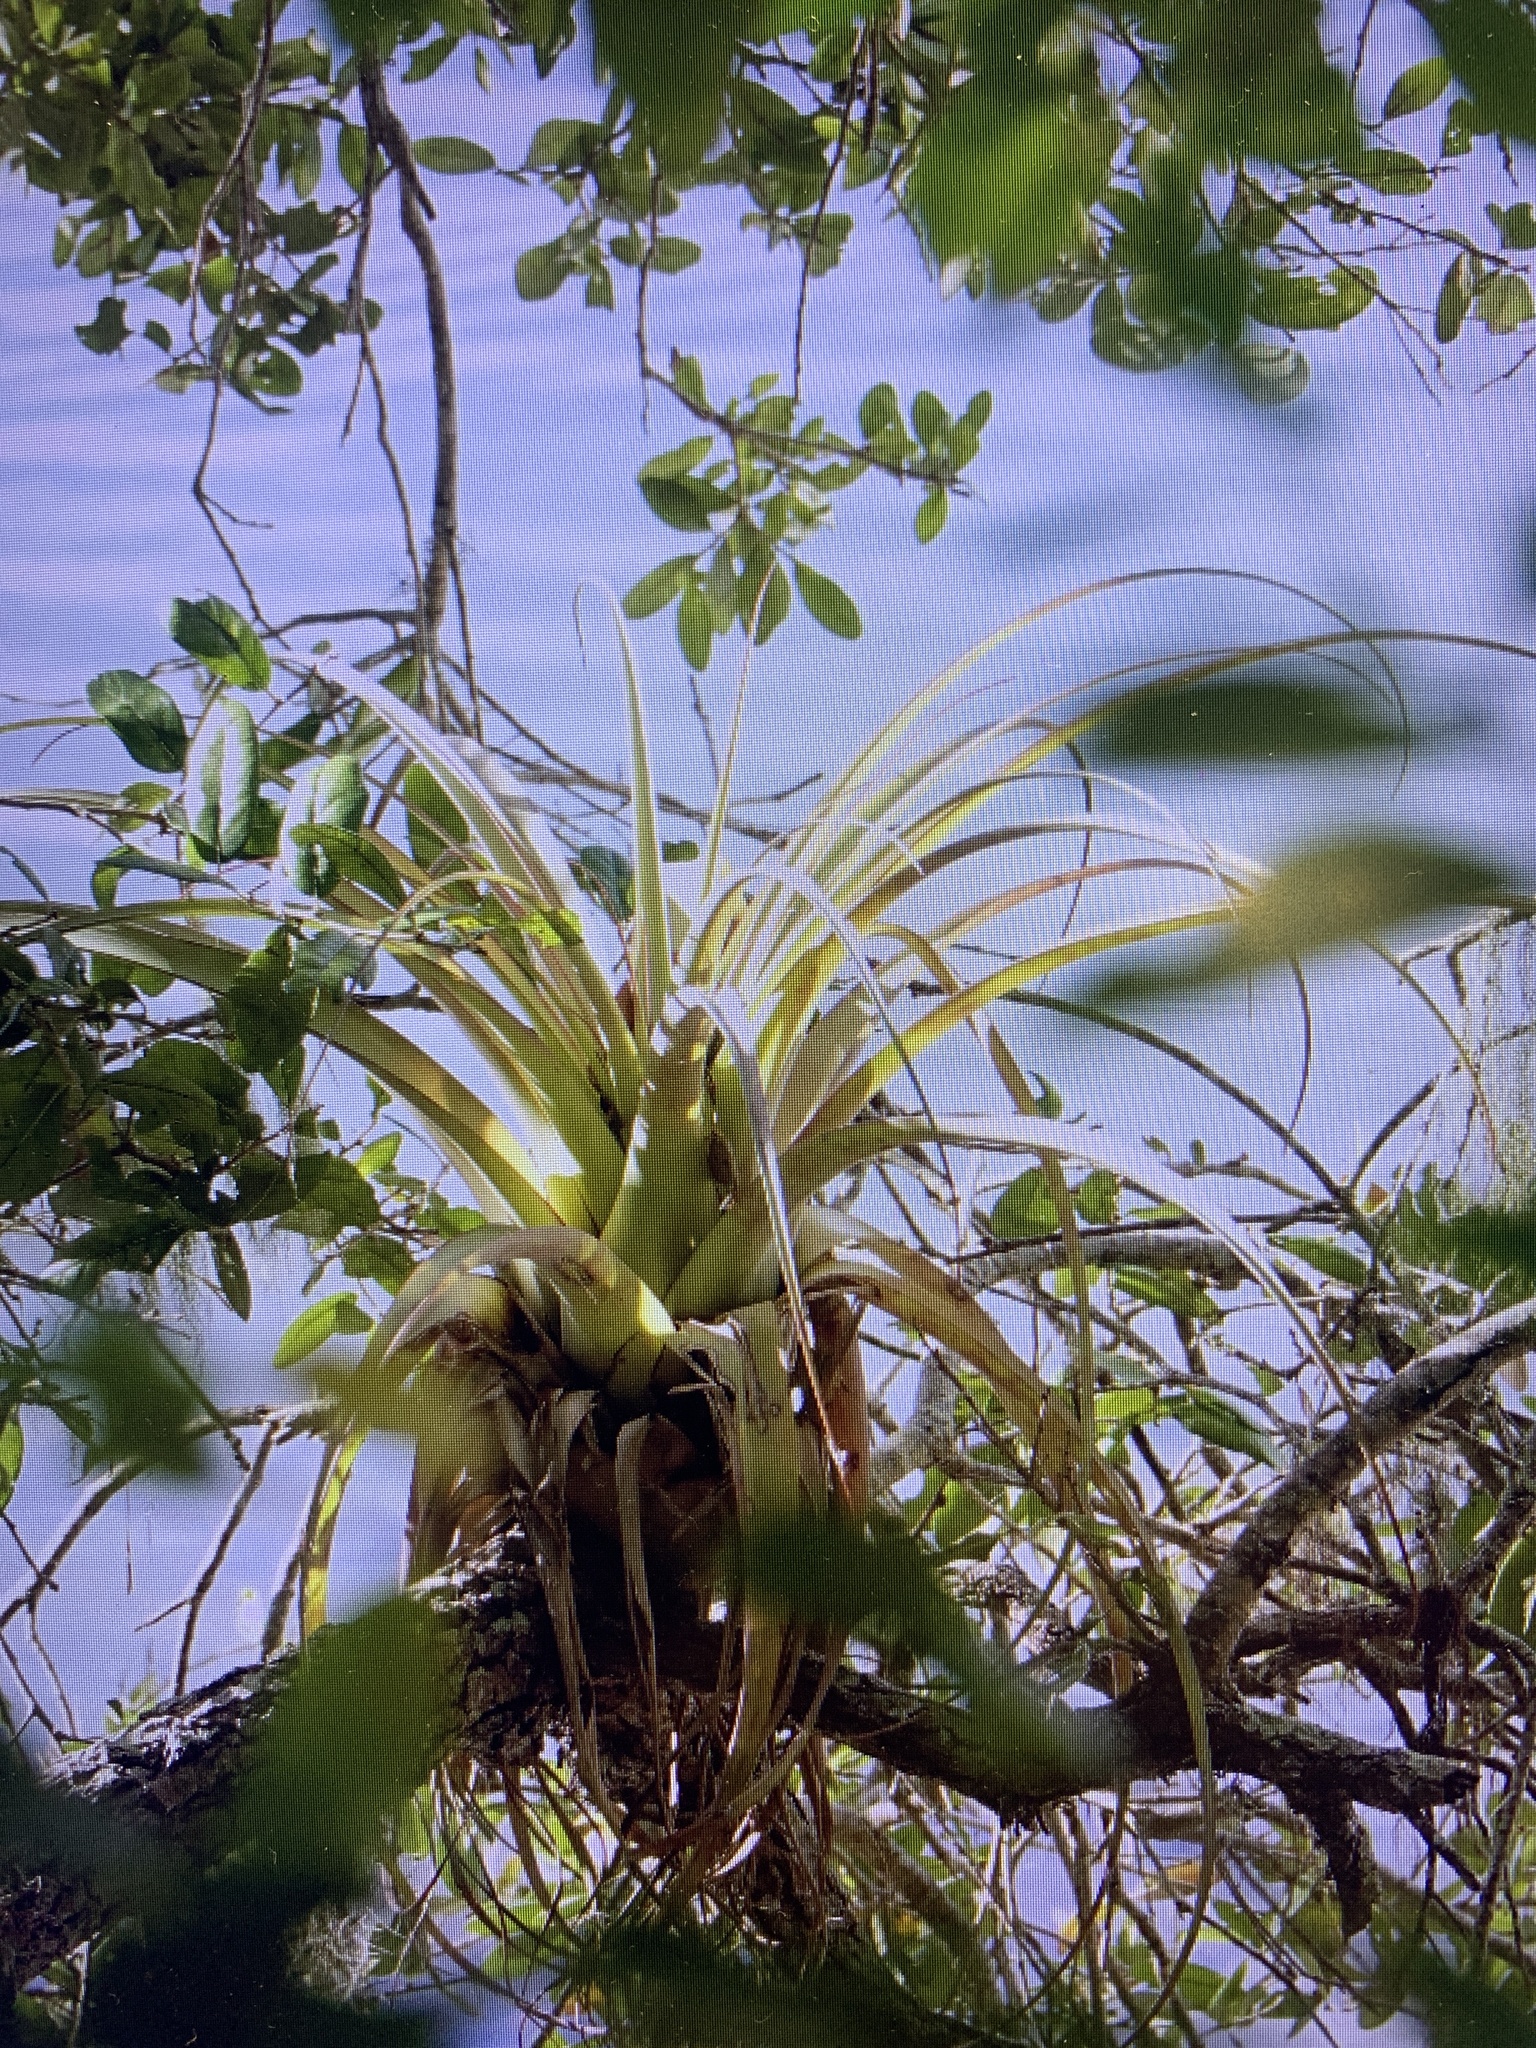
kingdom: Plantae
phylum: Tracheophyta
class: Liliopsida
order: Poales
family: Bromeliaceae
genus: Tillandsia
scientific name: Tillandsia utriculata
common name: Wild pine
